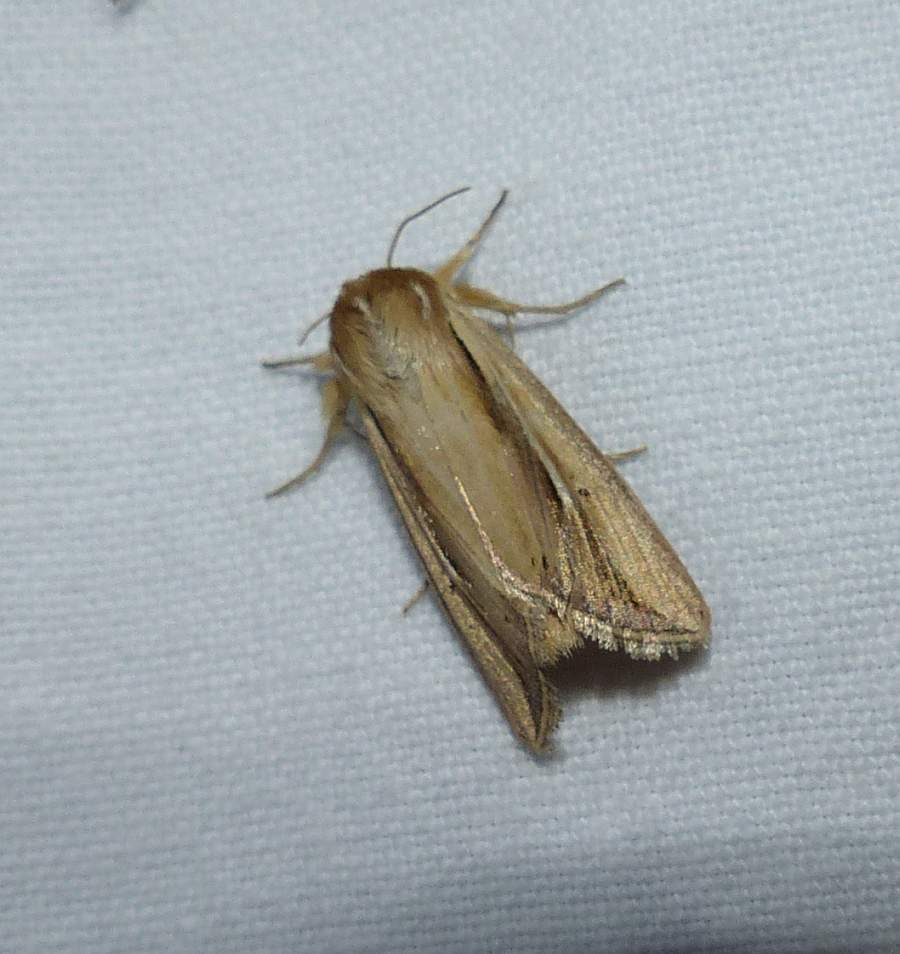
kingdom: Animalia
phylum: Arthropoda
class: Insecta
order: Lepidoptera
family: Noctuidae
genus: Dargida
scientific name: Dargida diffusa
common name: Wheat head armyworm
